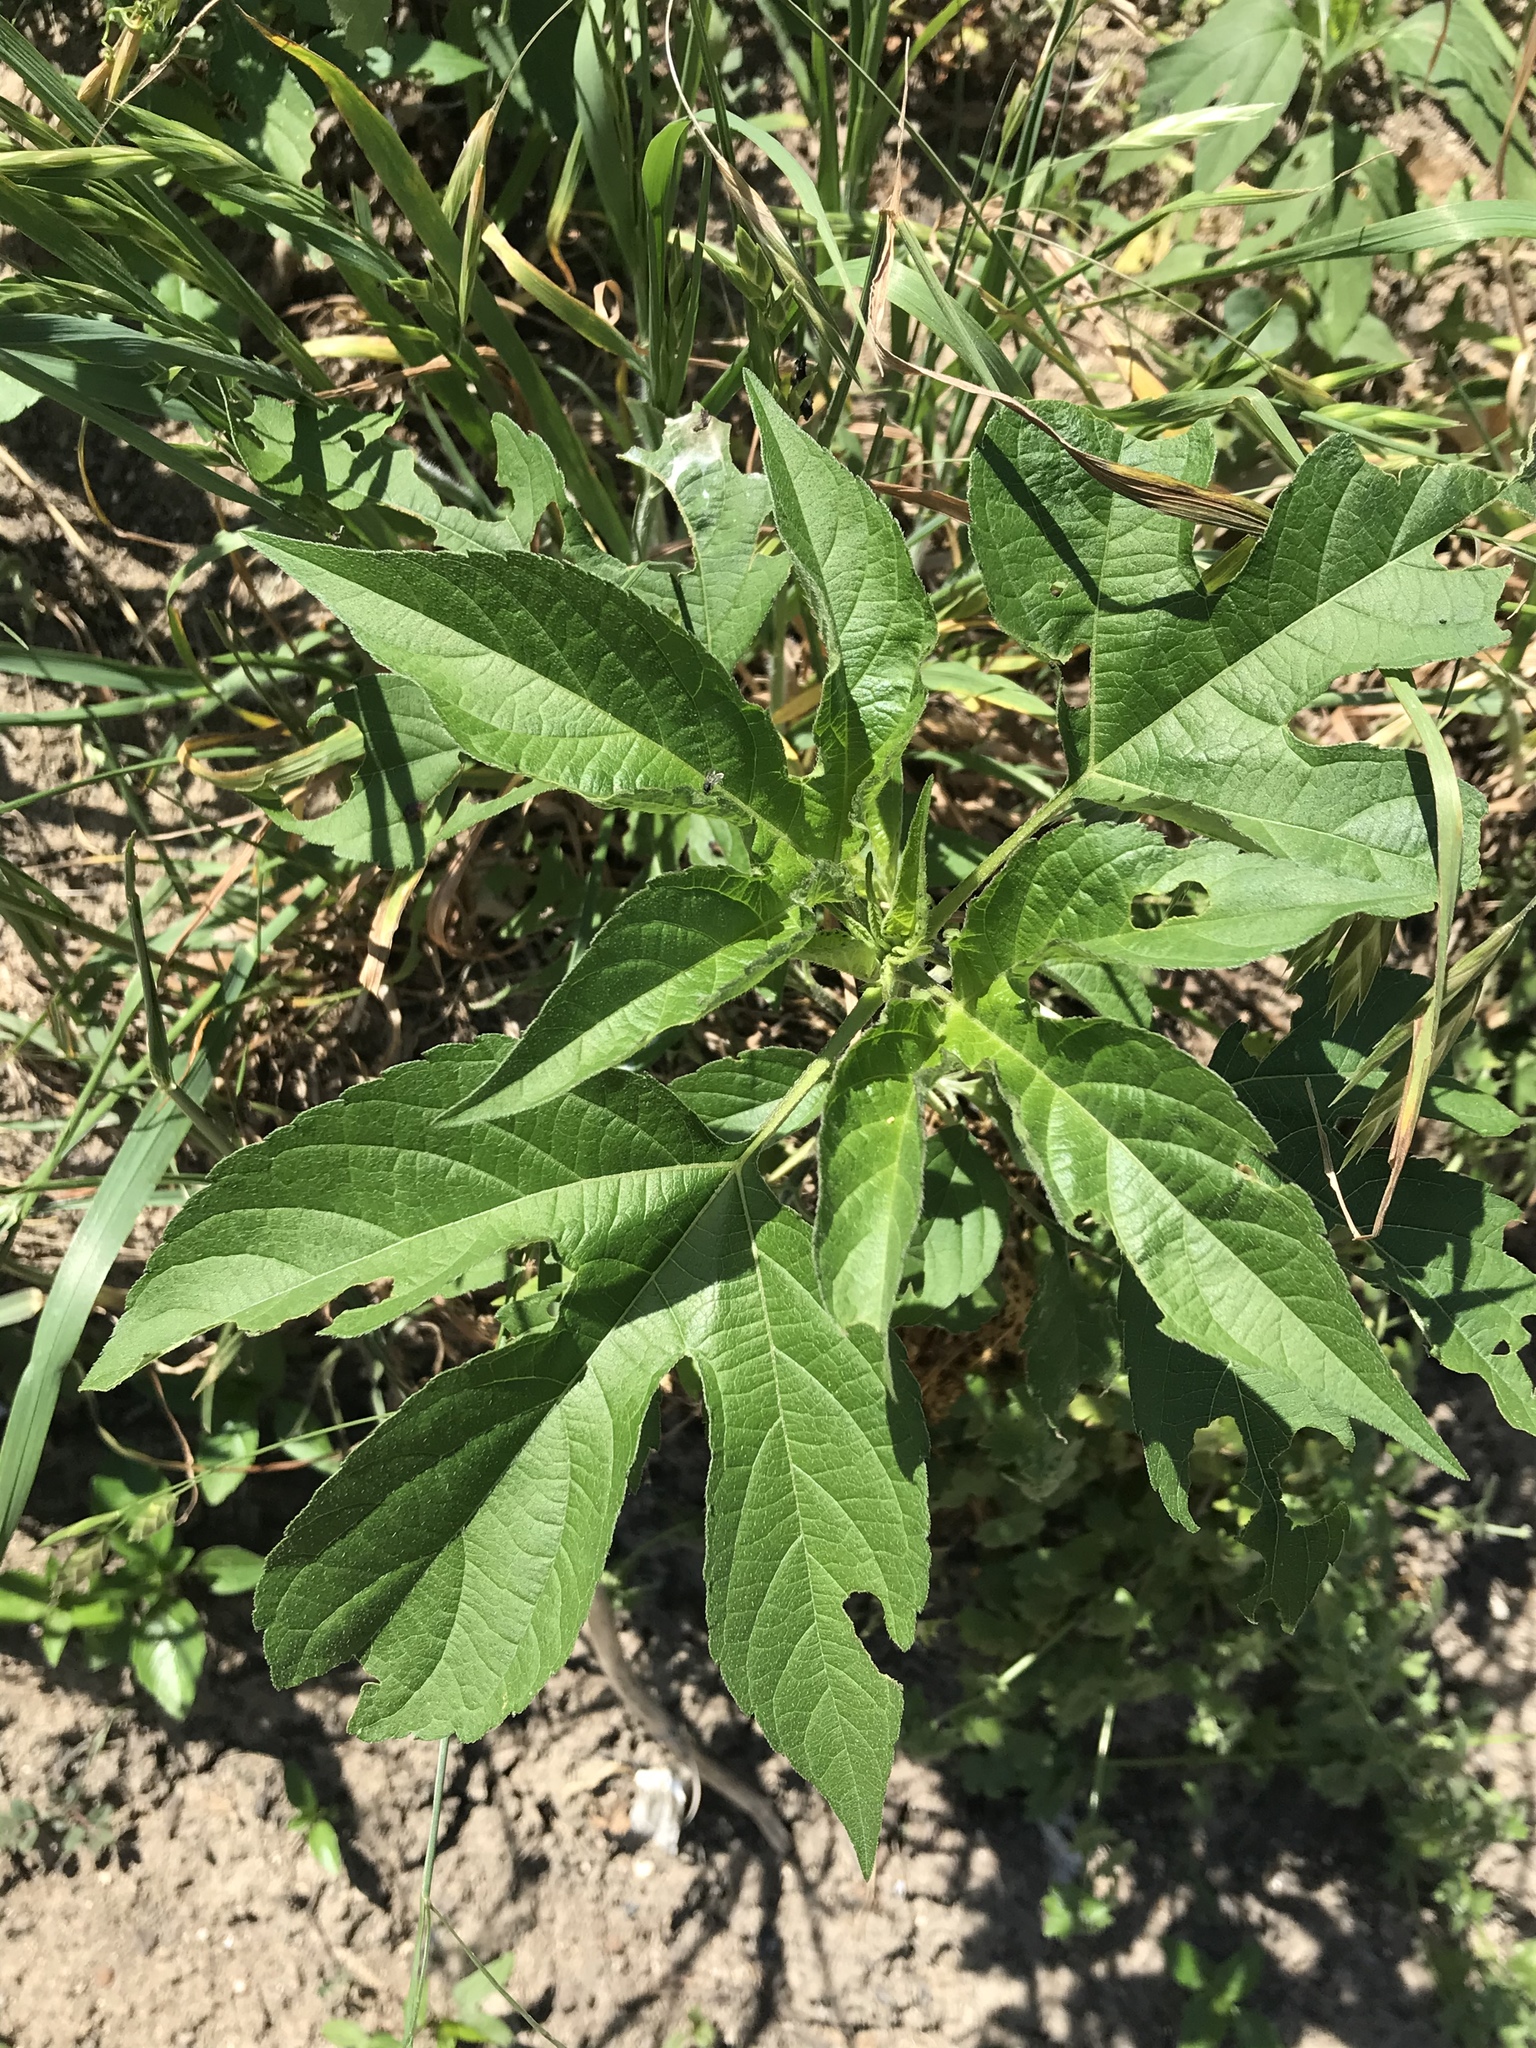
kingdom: Plantae
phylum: Tracheophyta
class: Magnoliopsida
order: Asterales
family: Asteraceae
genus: Ambrosia
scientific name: Ambrosia trifida
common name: Giant ragweed
